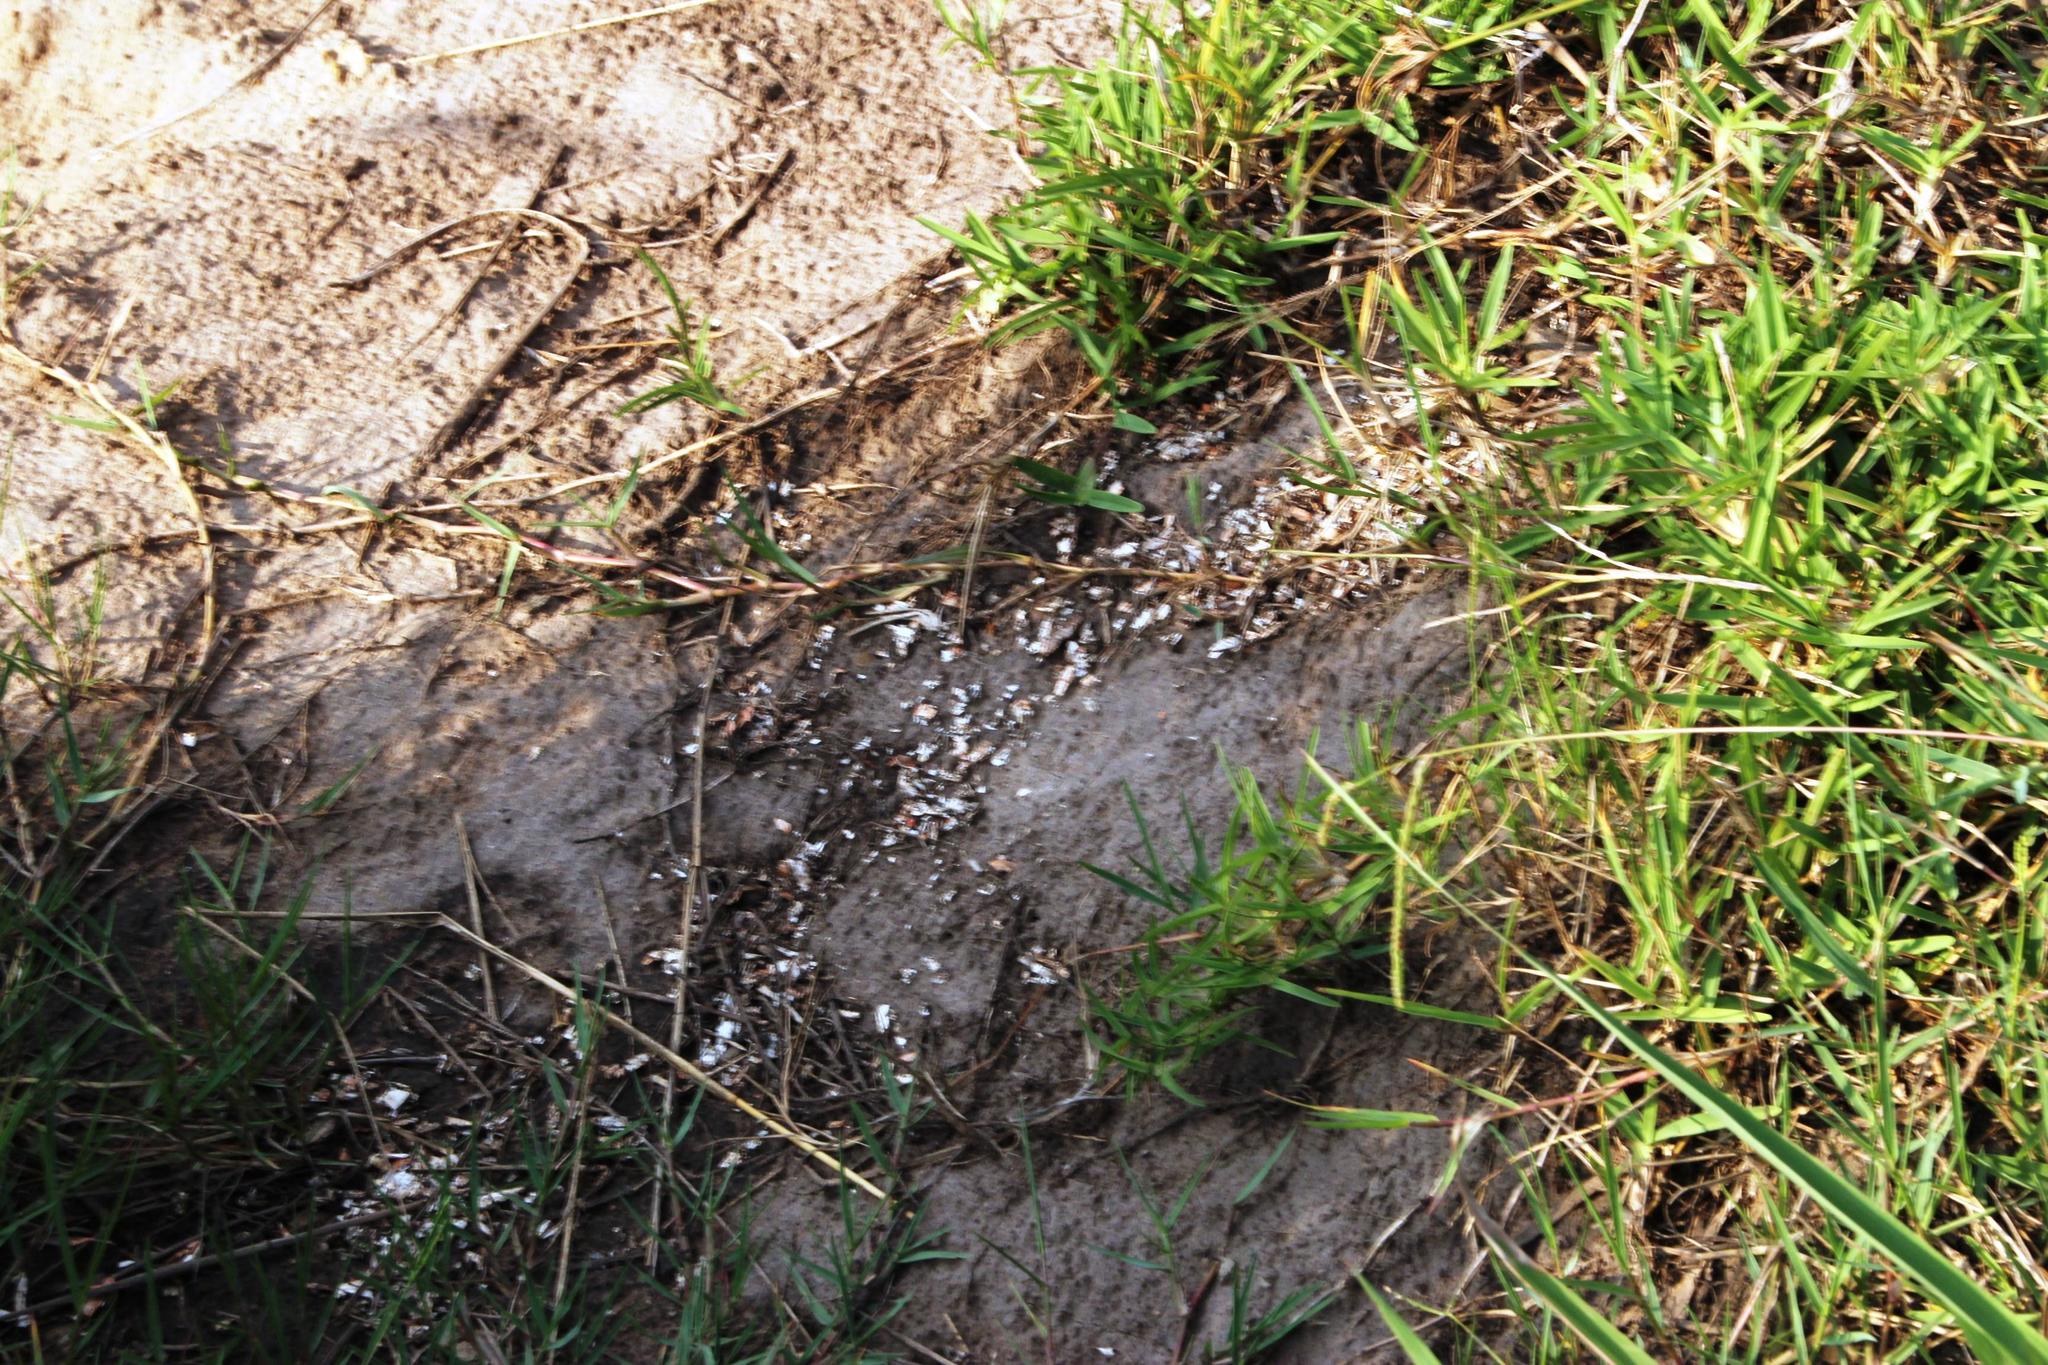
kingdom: Animalia
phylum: Chordata
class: Mammalia
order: Carnivora
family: Mustelidae
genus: Aonyx
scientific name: Aonyx capensis
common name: African clawless otter
